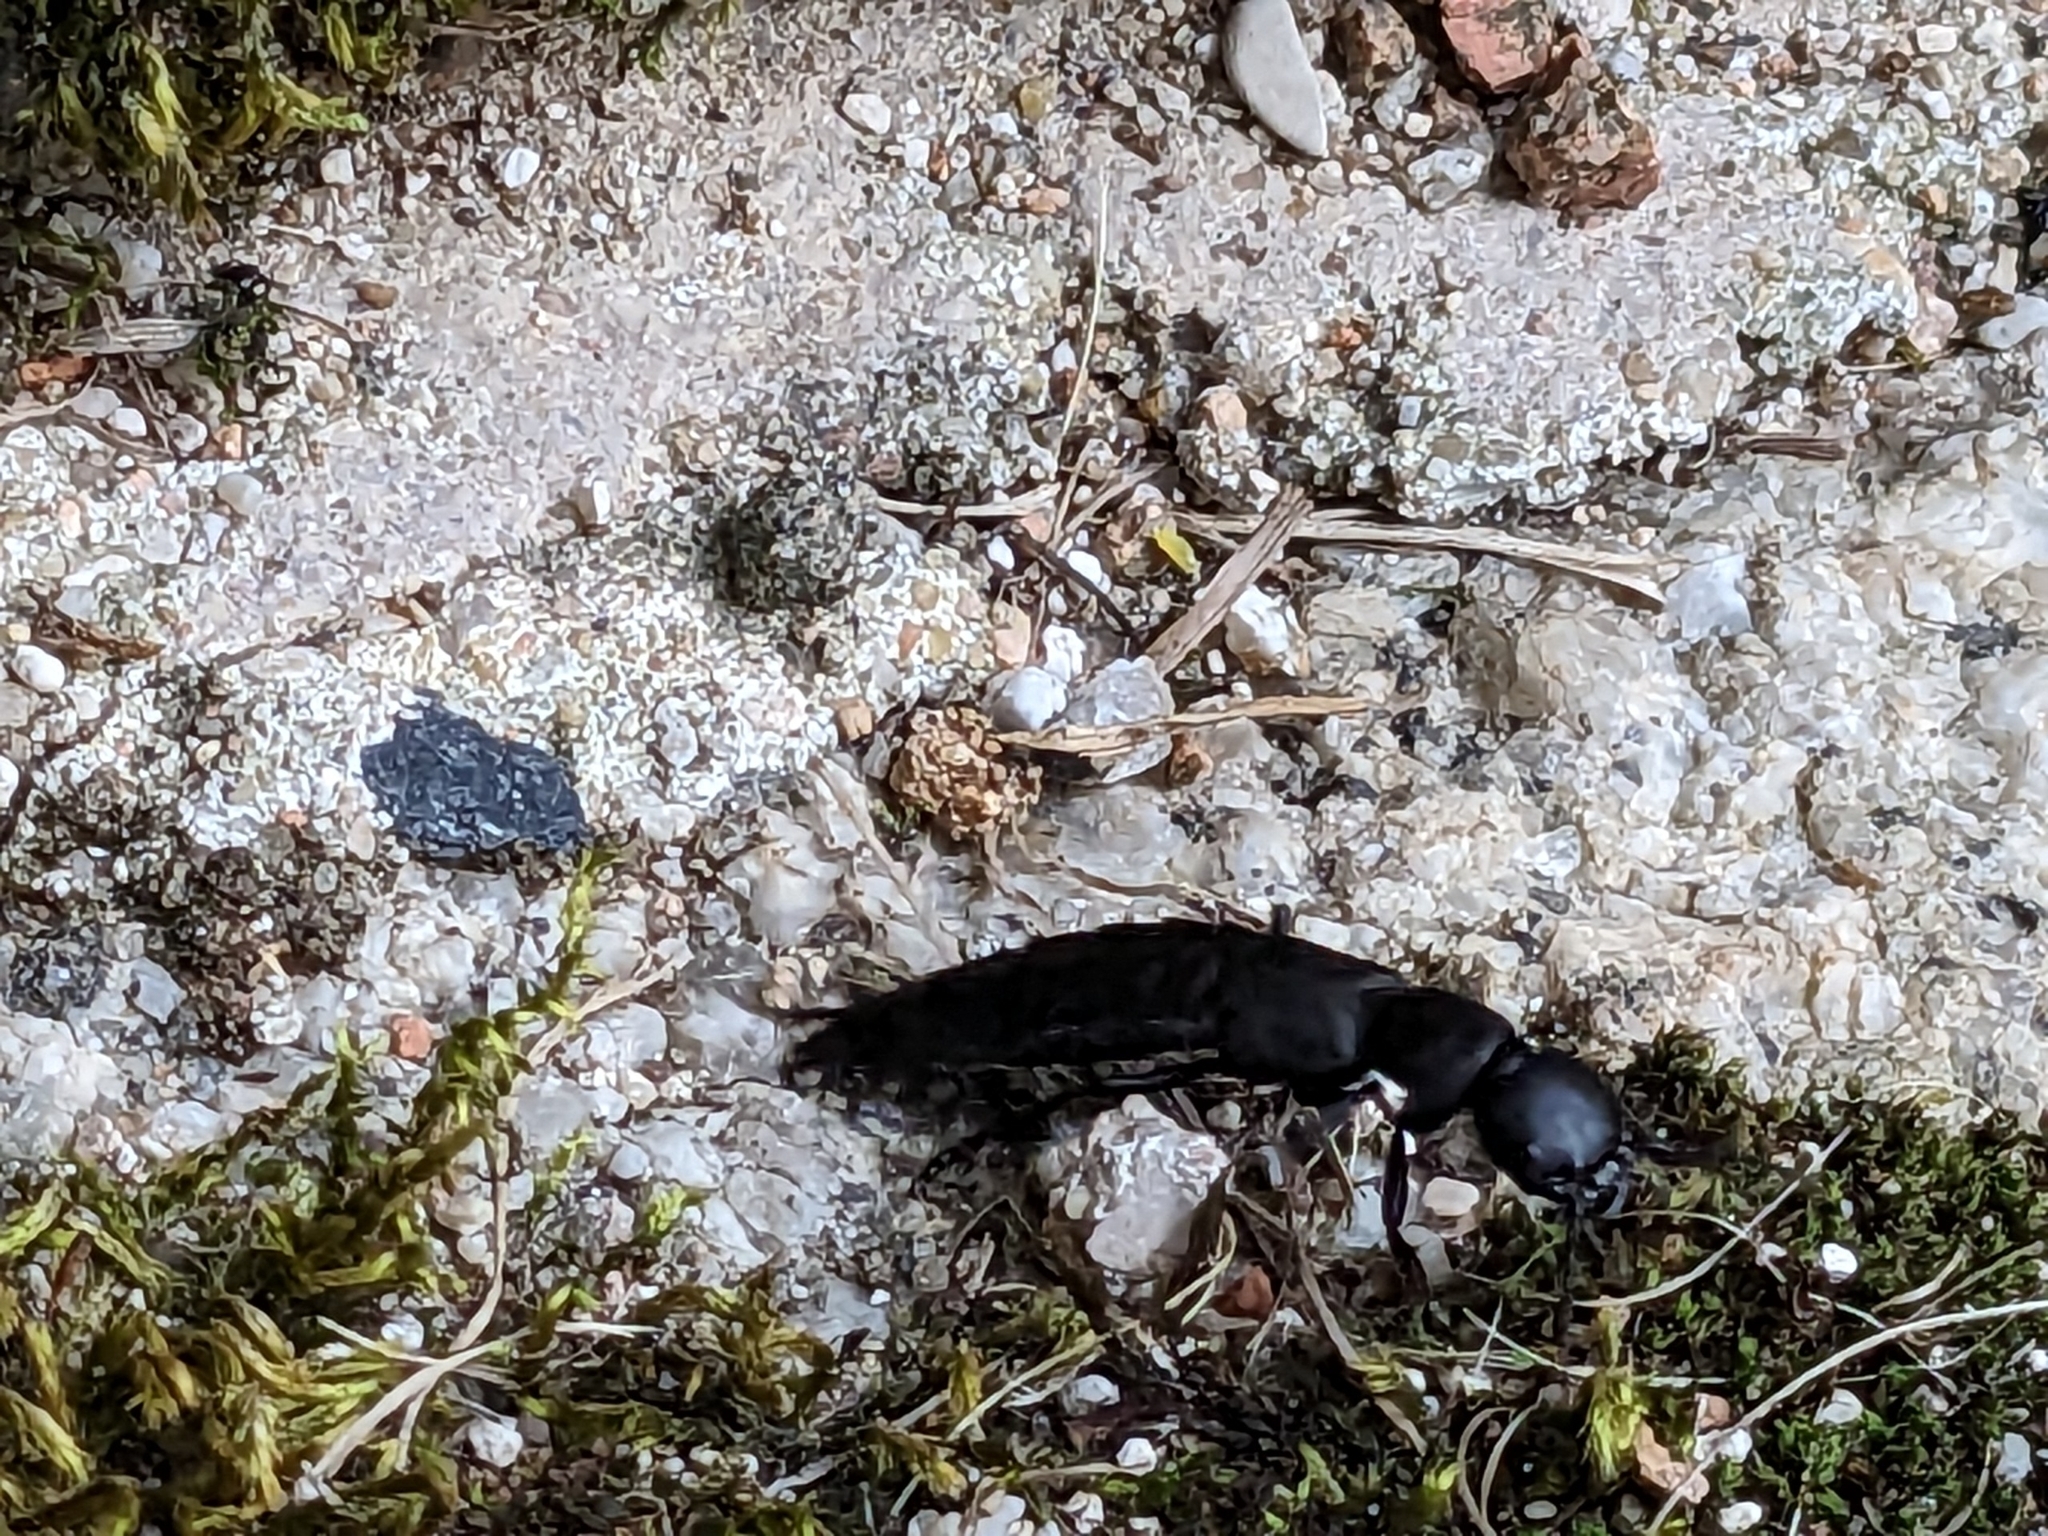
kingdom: Animalia
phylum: Arthropoda
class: Insecta
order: Coleoptera
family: Staphylinidae
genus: Ocypus
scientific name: Ocypus olens
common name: Devil's coach-horse
